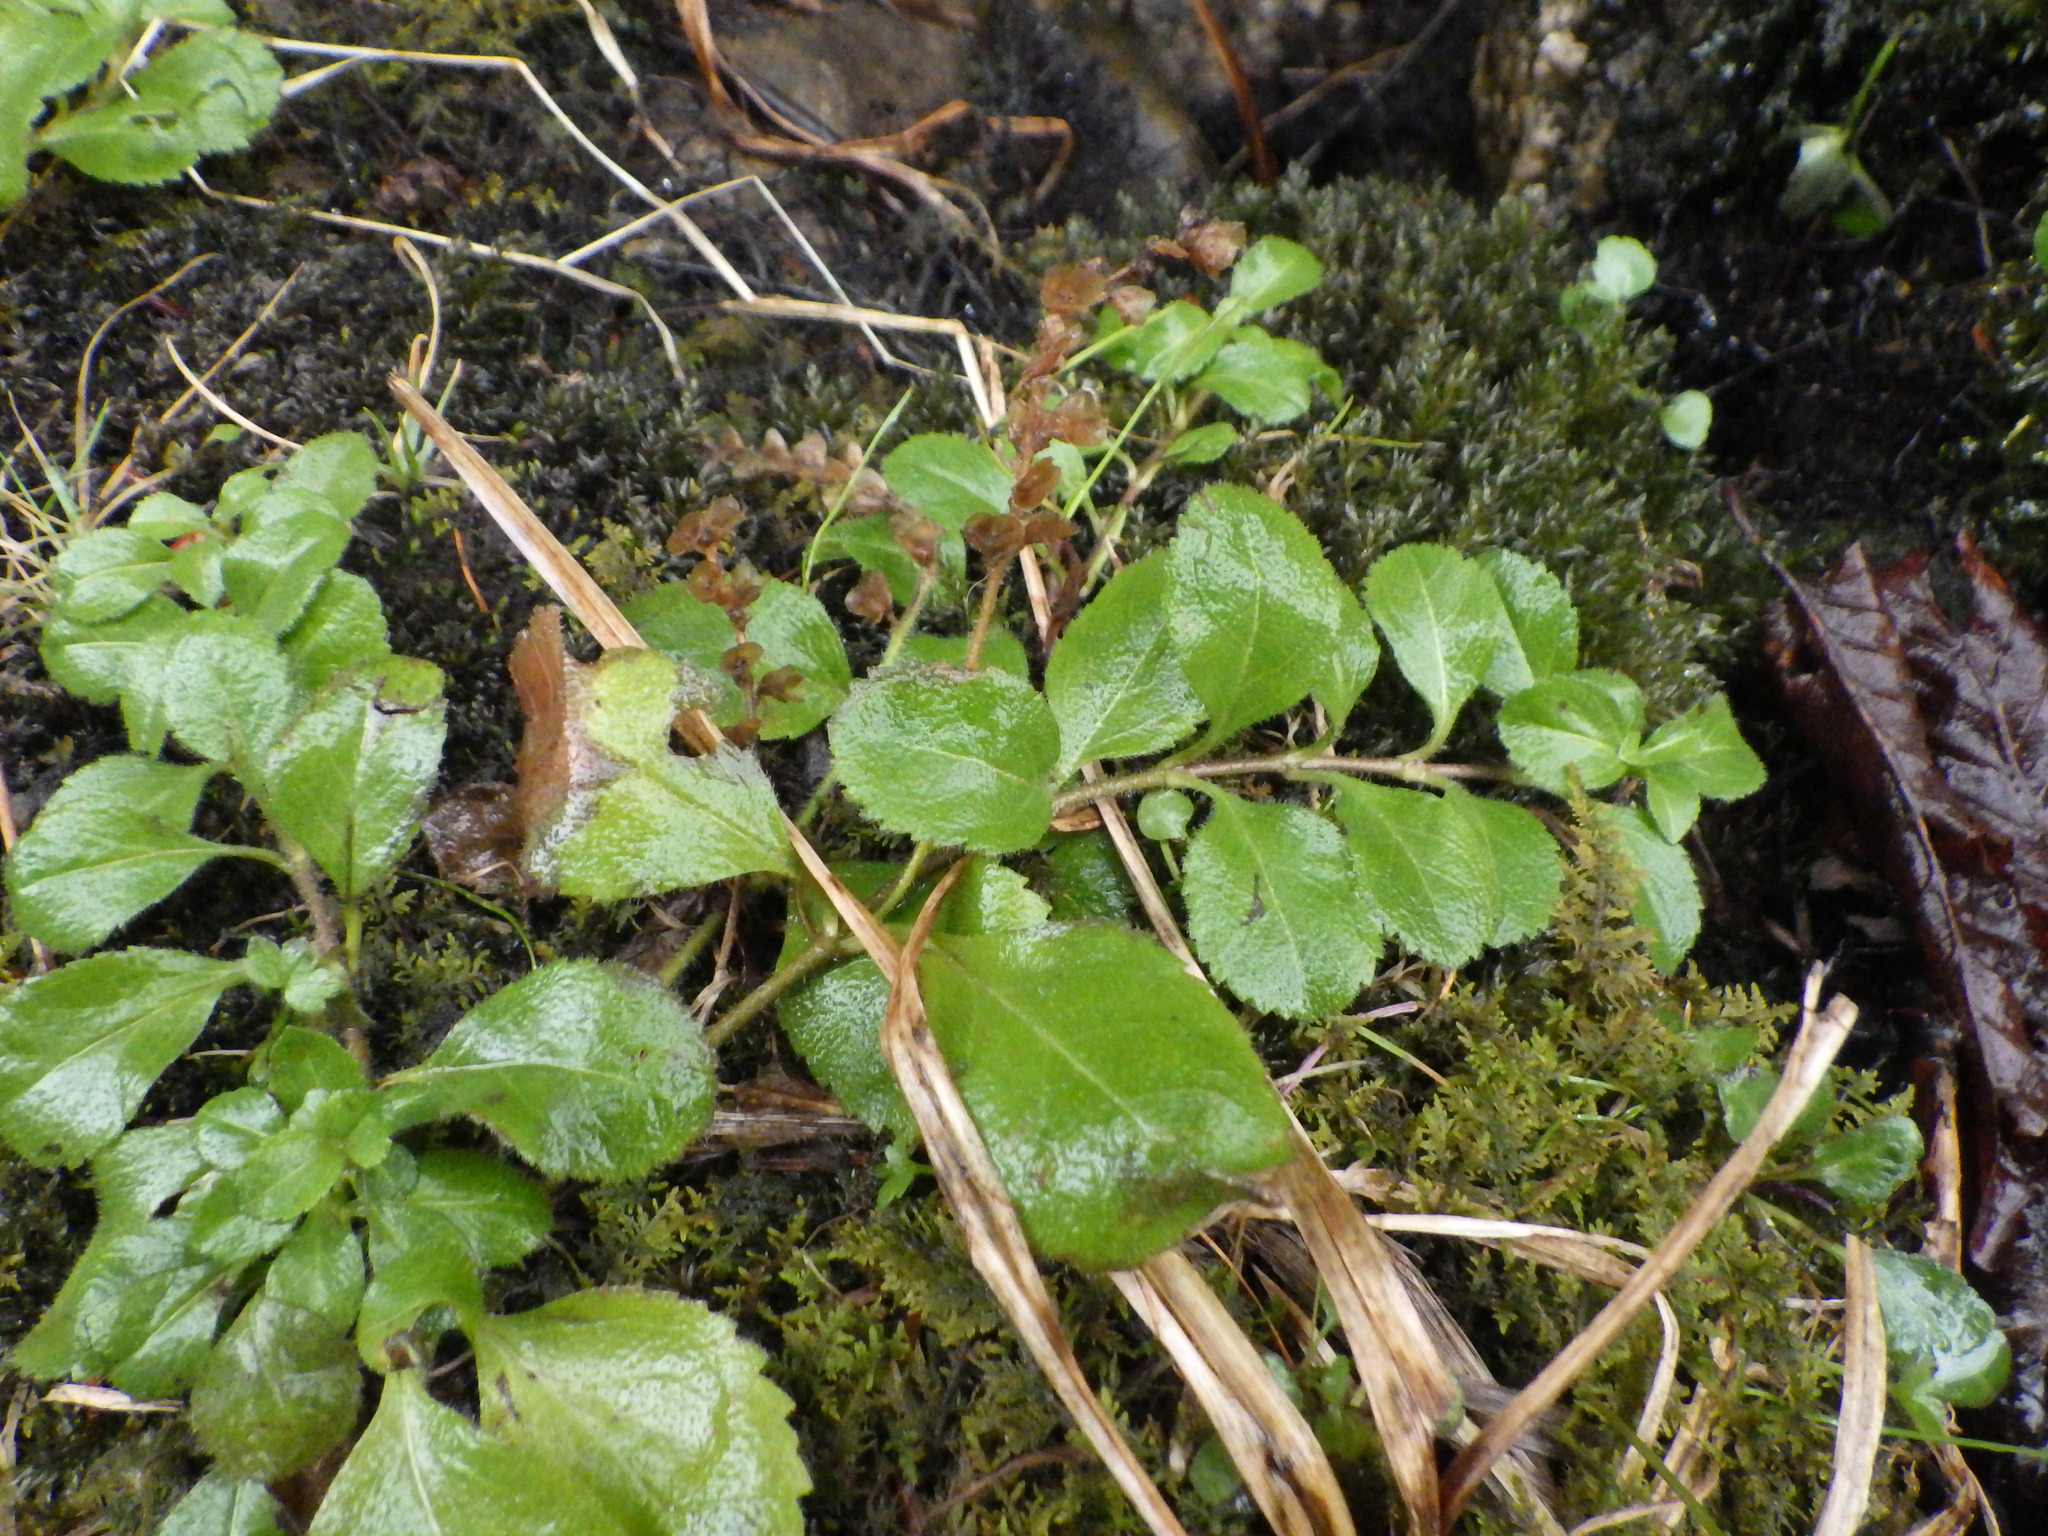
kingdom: Plantae
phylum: Tracheophyta
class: Magnoliopsida
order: Lamiales
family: Plantaginaceae
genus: Veronica
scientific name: Veronica officinalis
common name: Common speedwell
